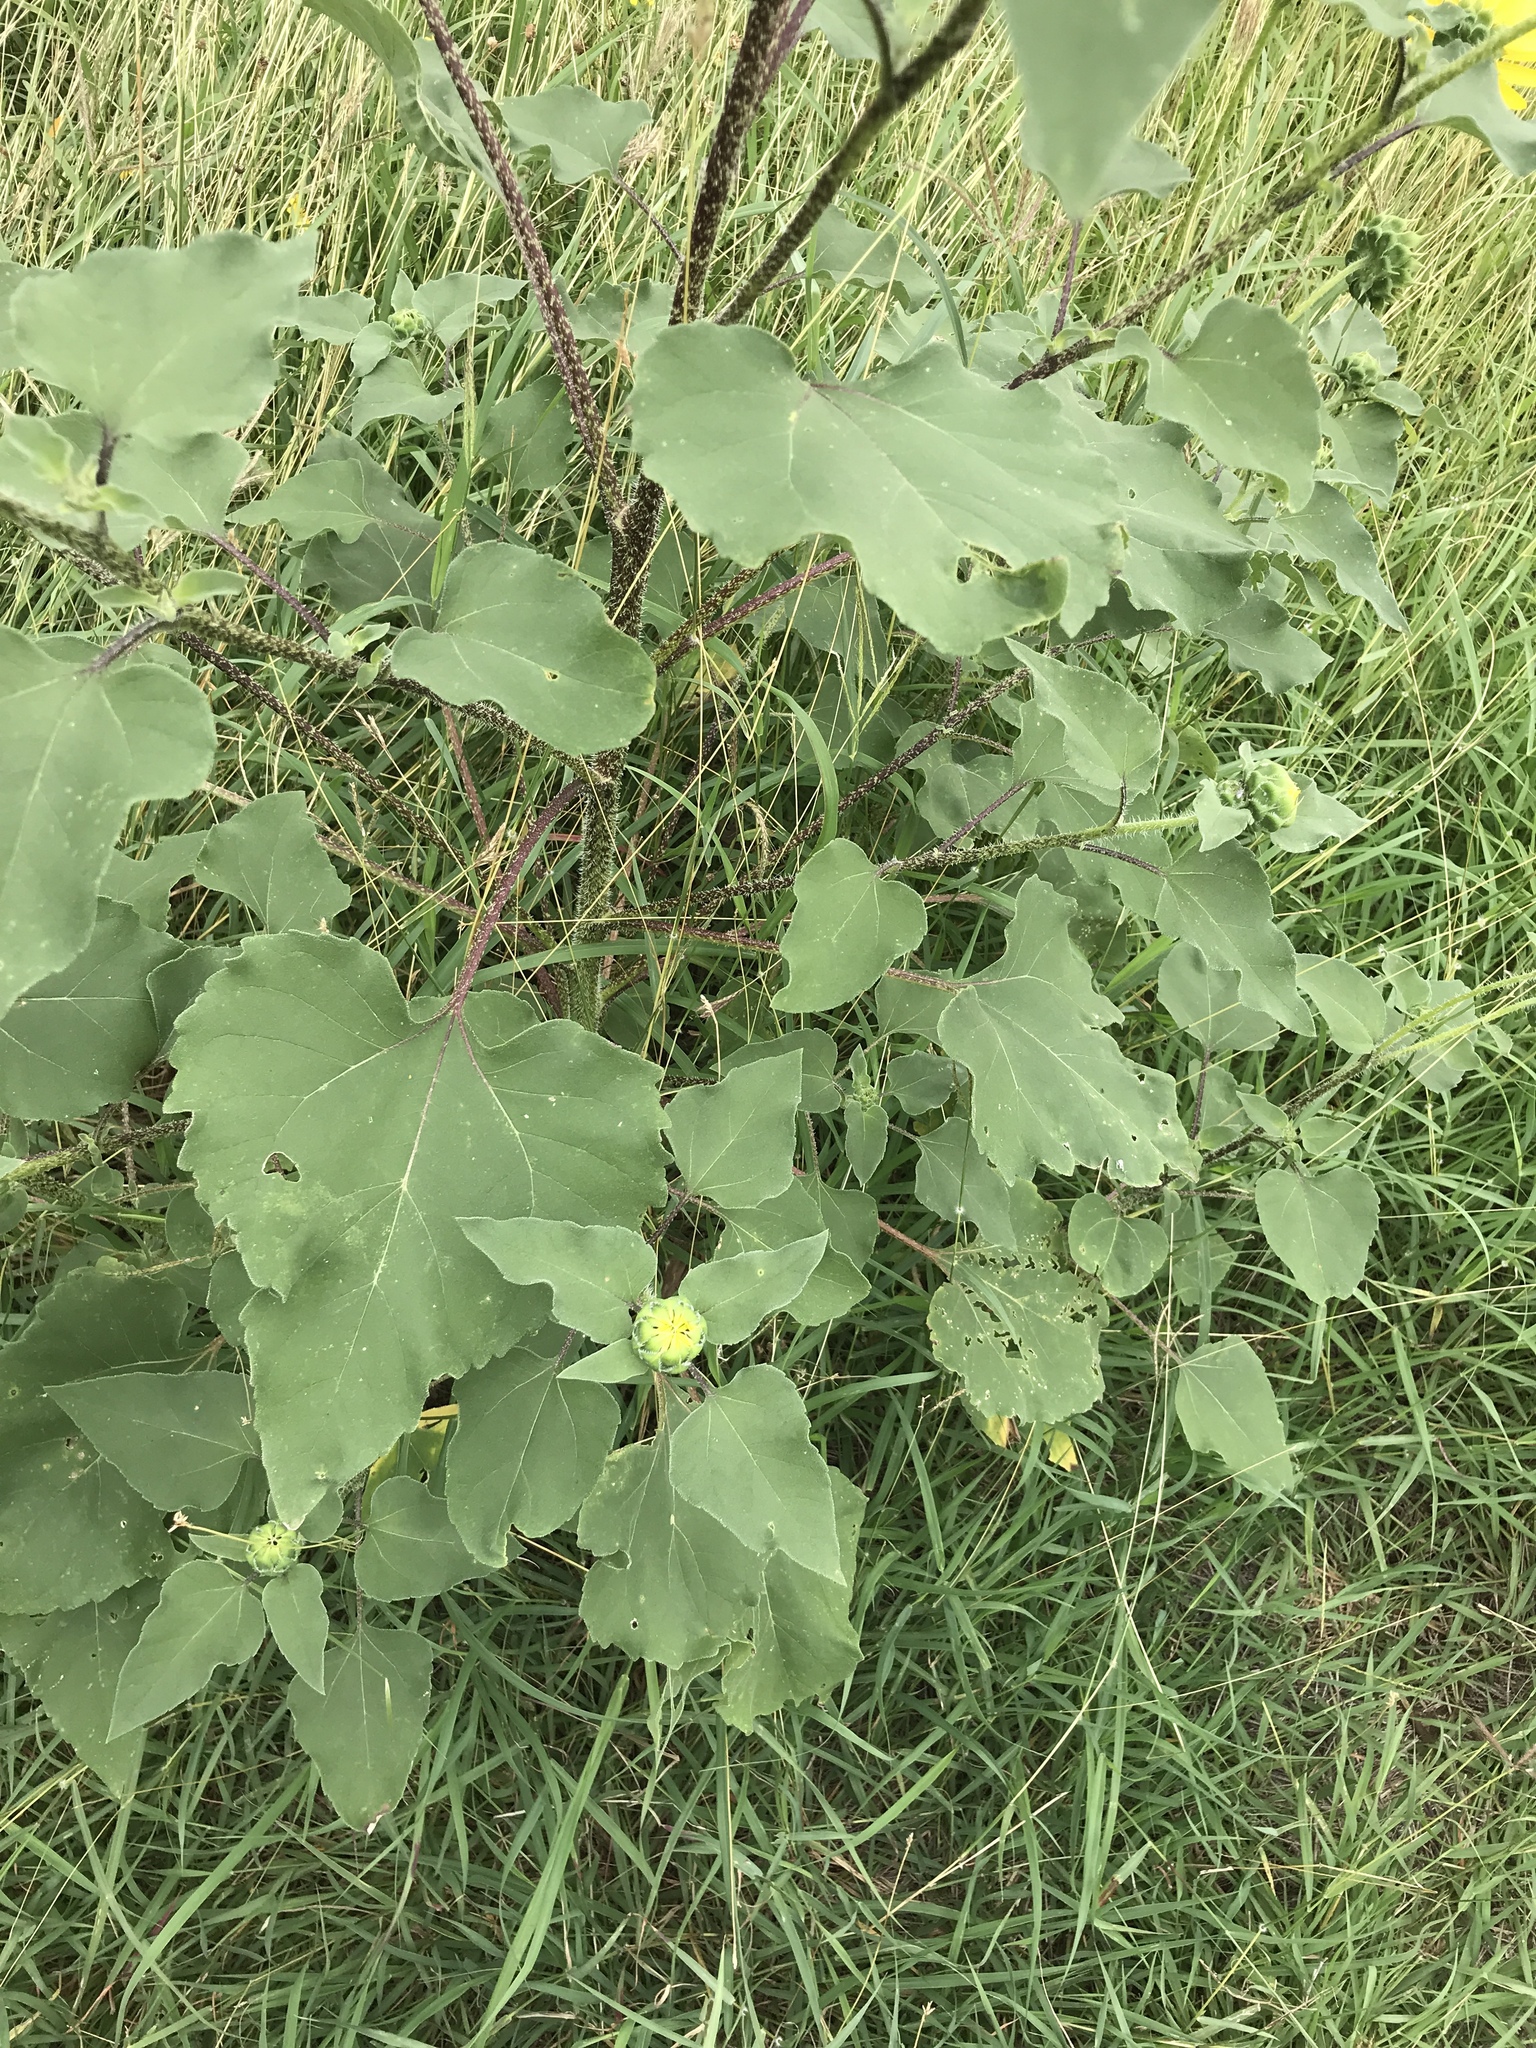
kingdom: Plantae
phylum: Tracheophyta
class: Magnoliopsida
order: Asterales
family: Asteraceae
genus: Helianthus
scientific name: Helianthus annuus
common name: Sunflower
